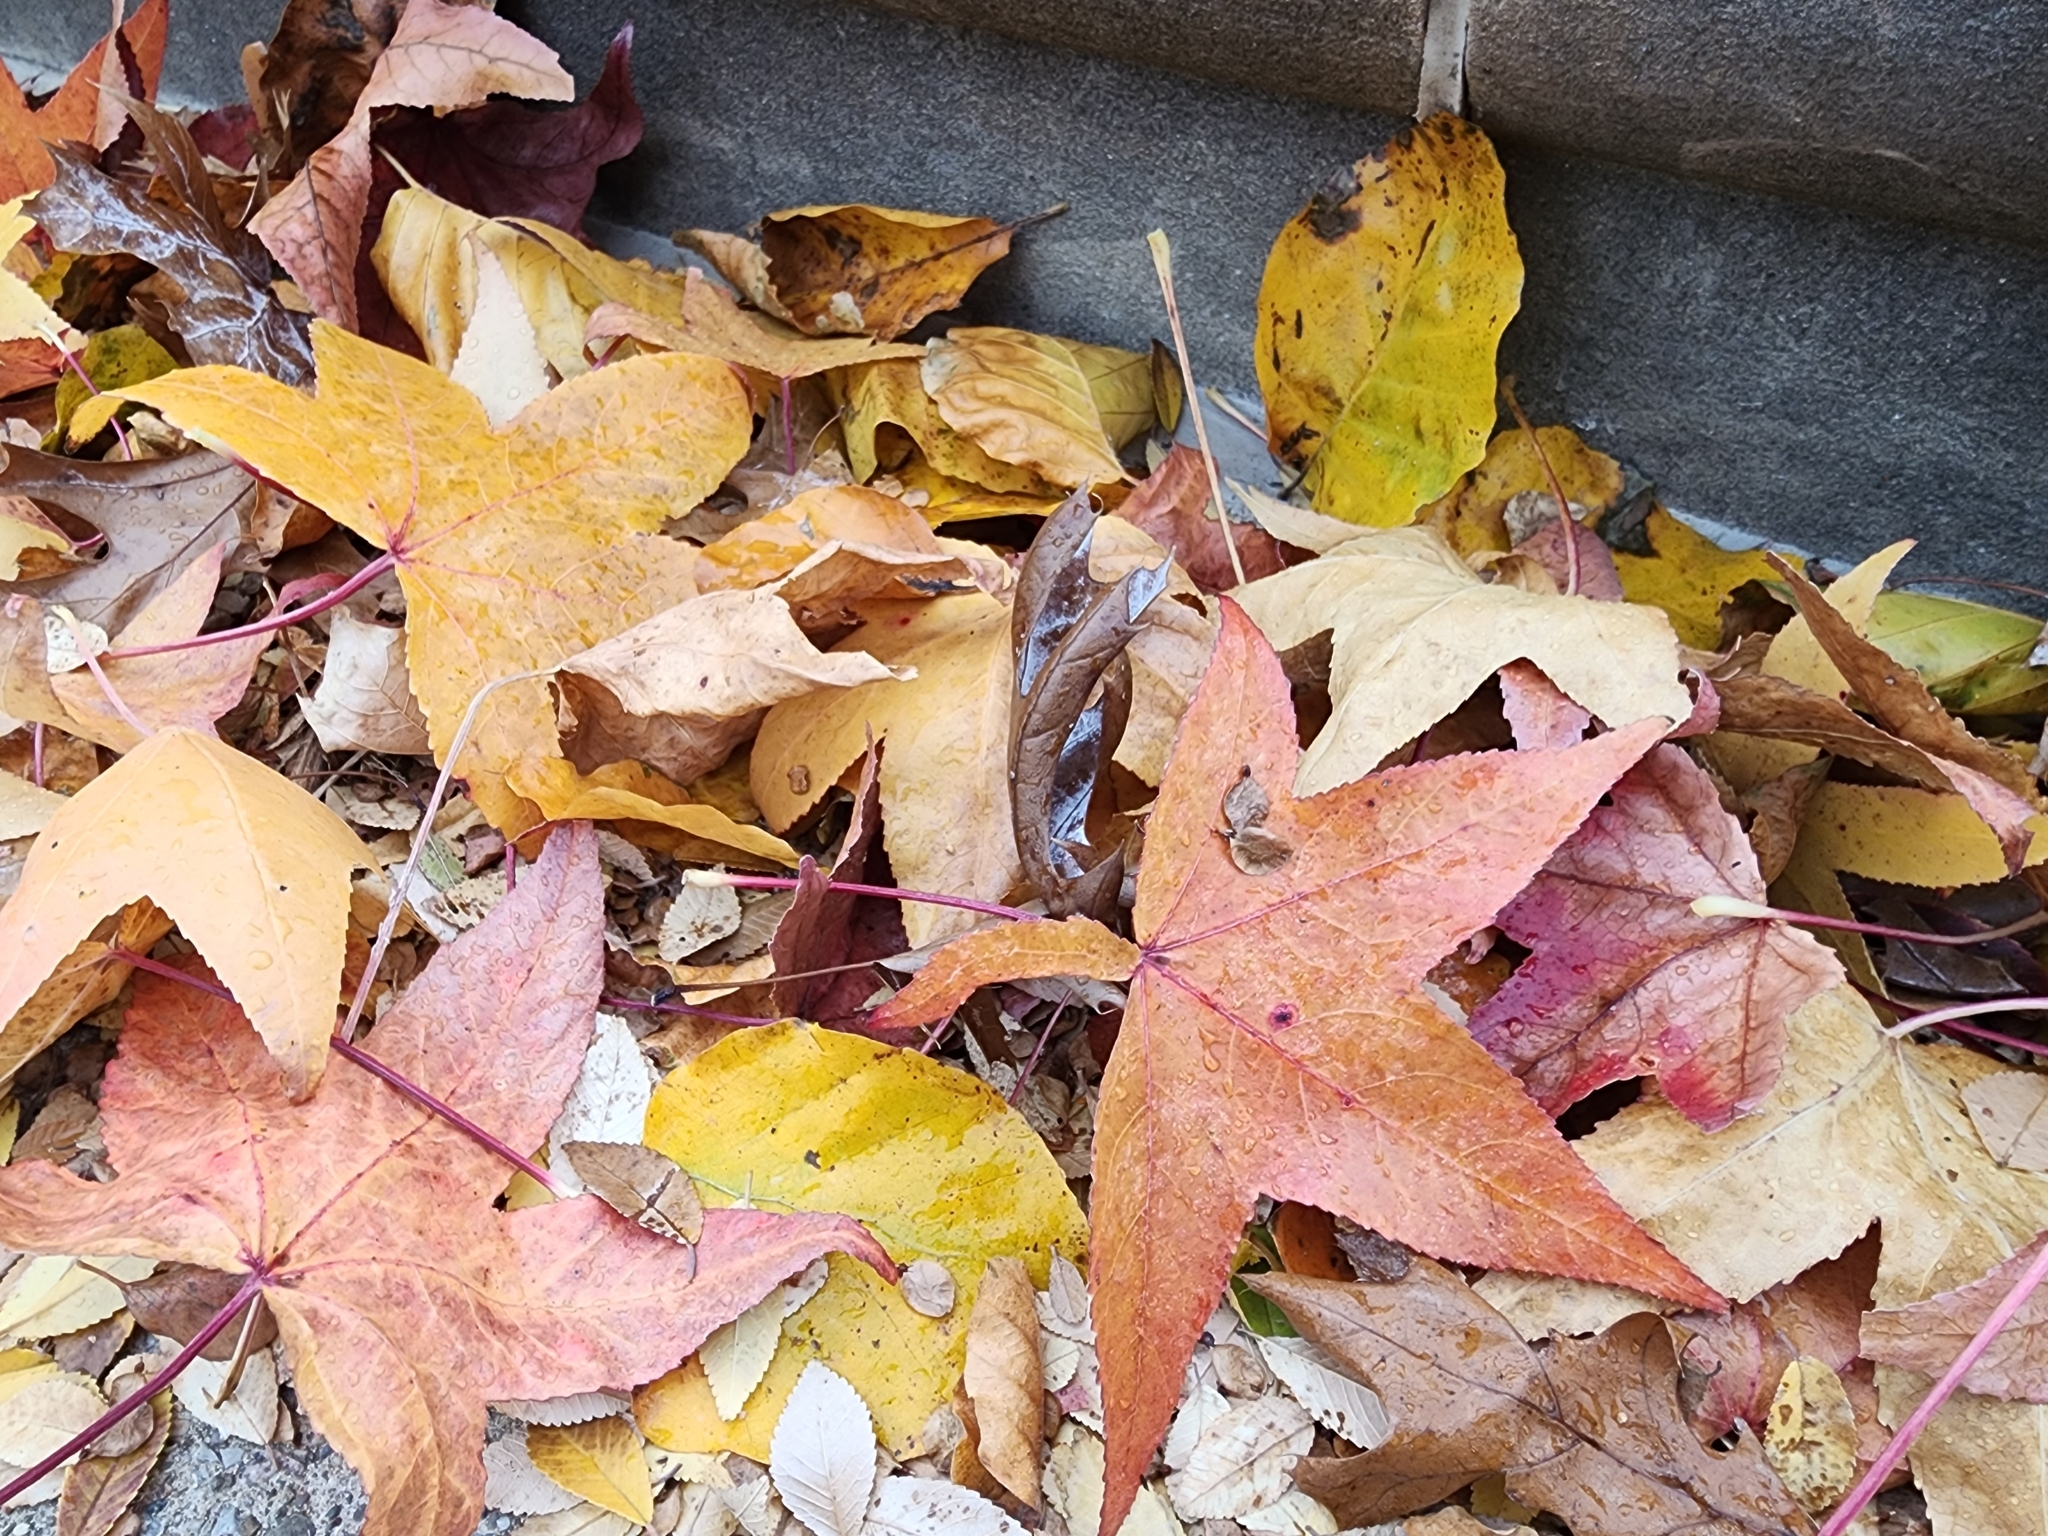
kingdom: Plantae
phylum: Tracheophyta
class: Magnoliopsida
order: Saxifragales
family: Altingiaceae
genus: Liquidambar
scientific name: Liquidambar styraciflua
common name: Sweet gum
